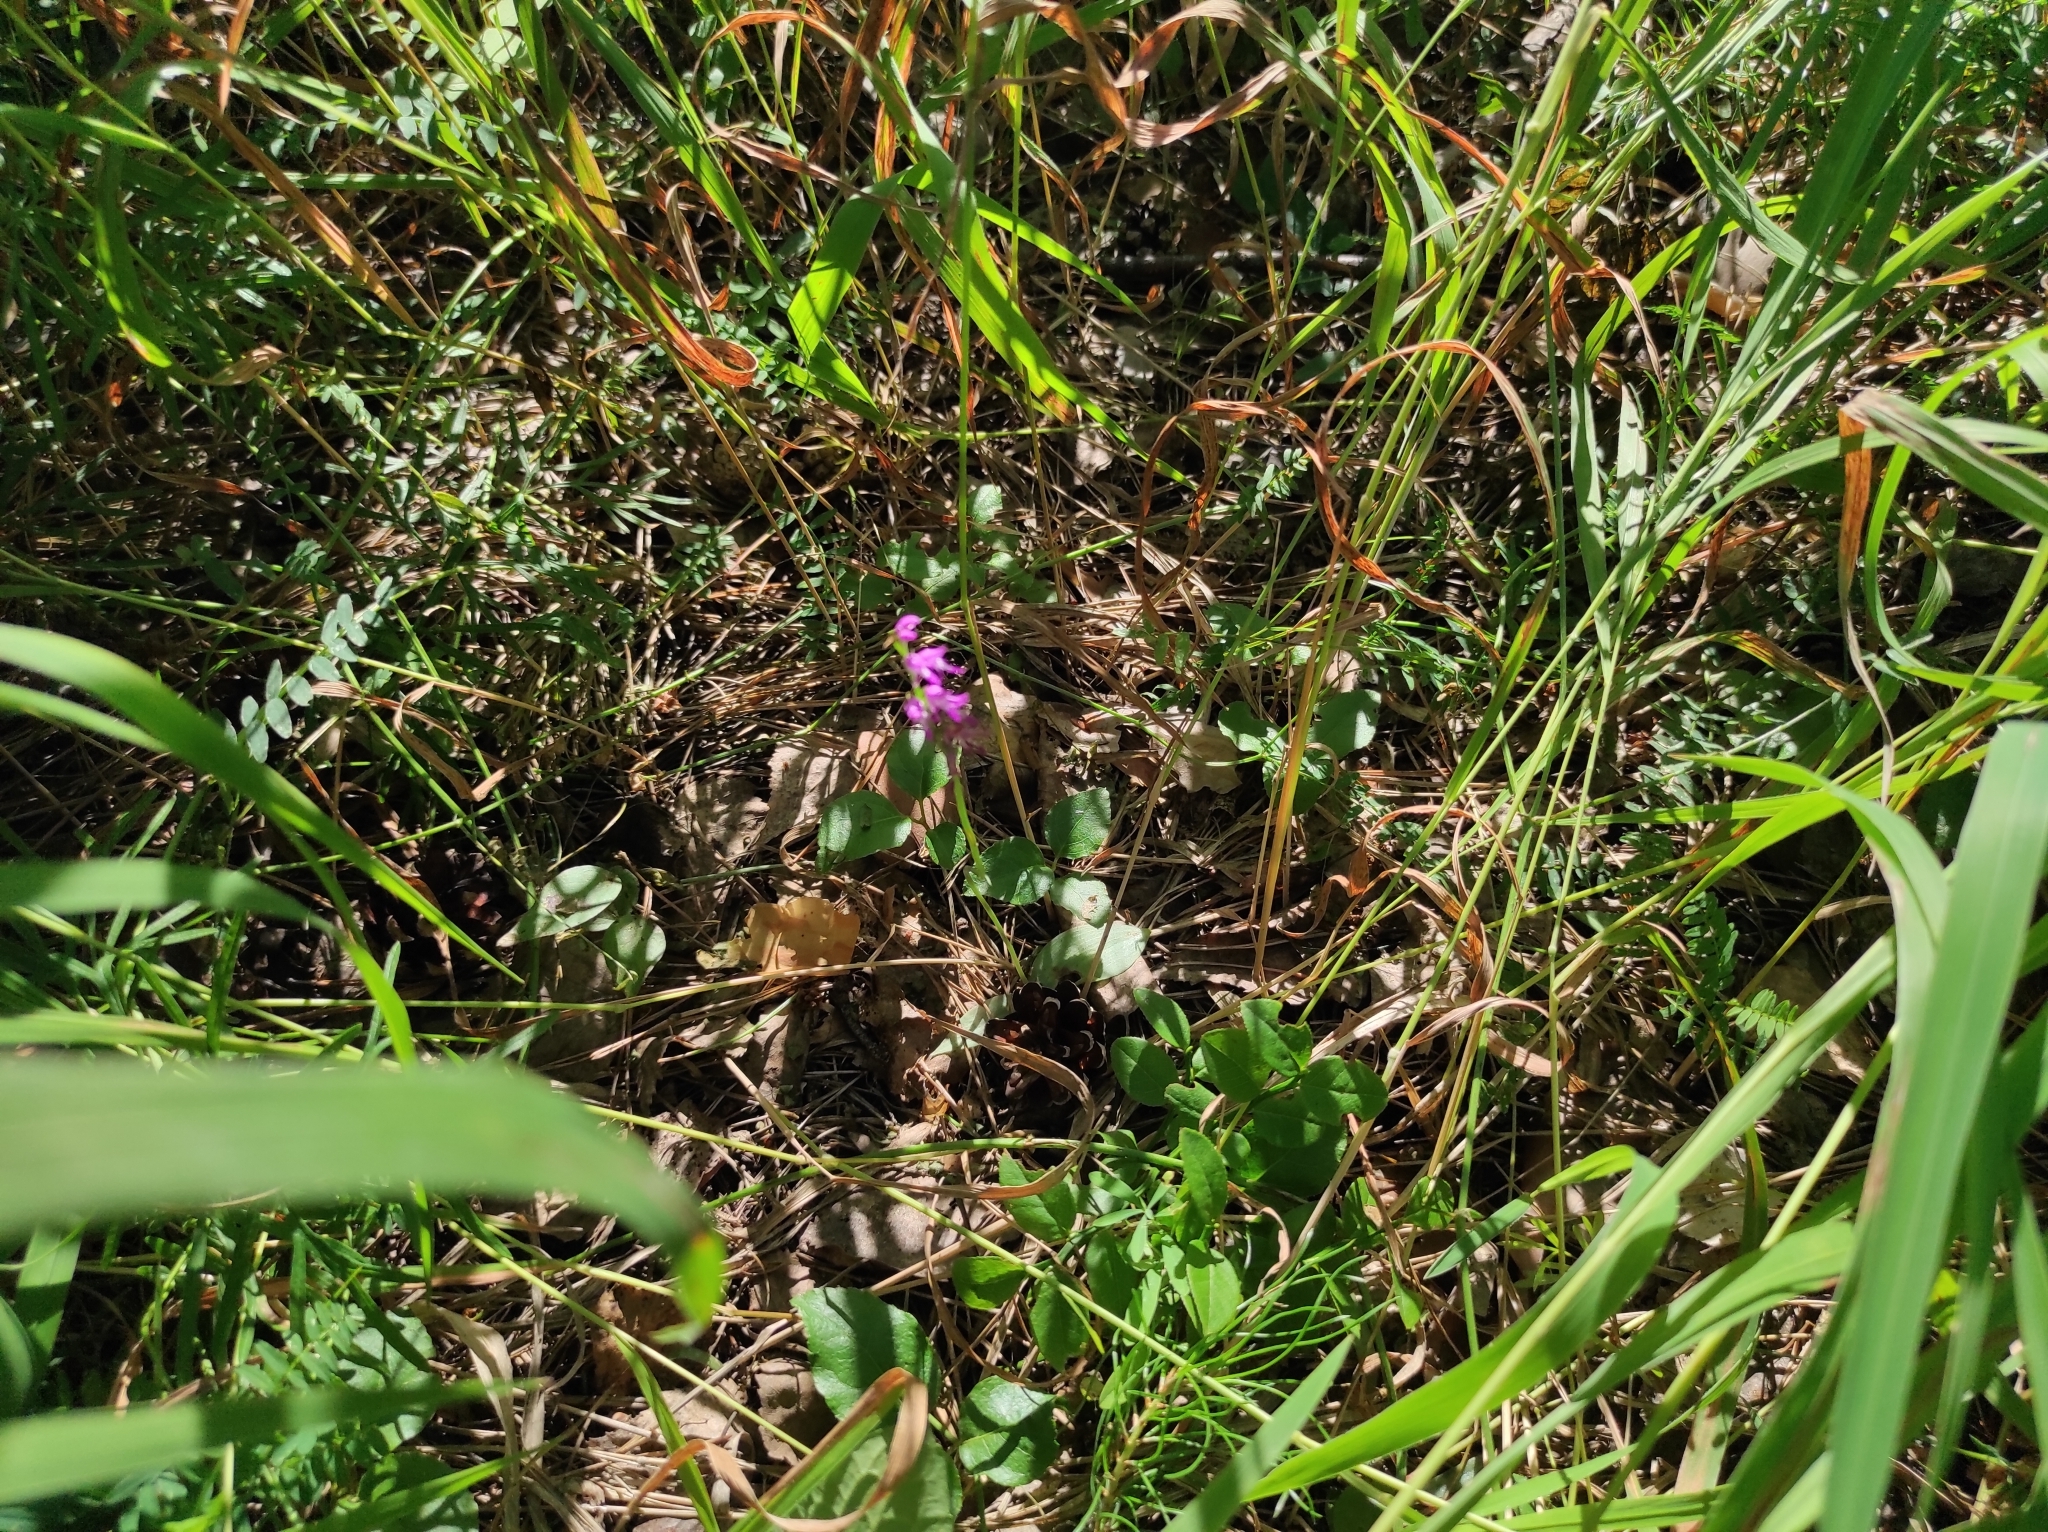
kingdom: Plantae
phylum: Tracheophyta
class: Liliopsida
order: Asparagales
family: Orchidaceae
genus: Hemipilia
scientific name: Hemipilia cucullata
